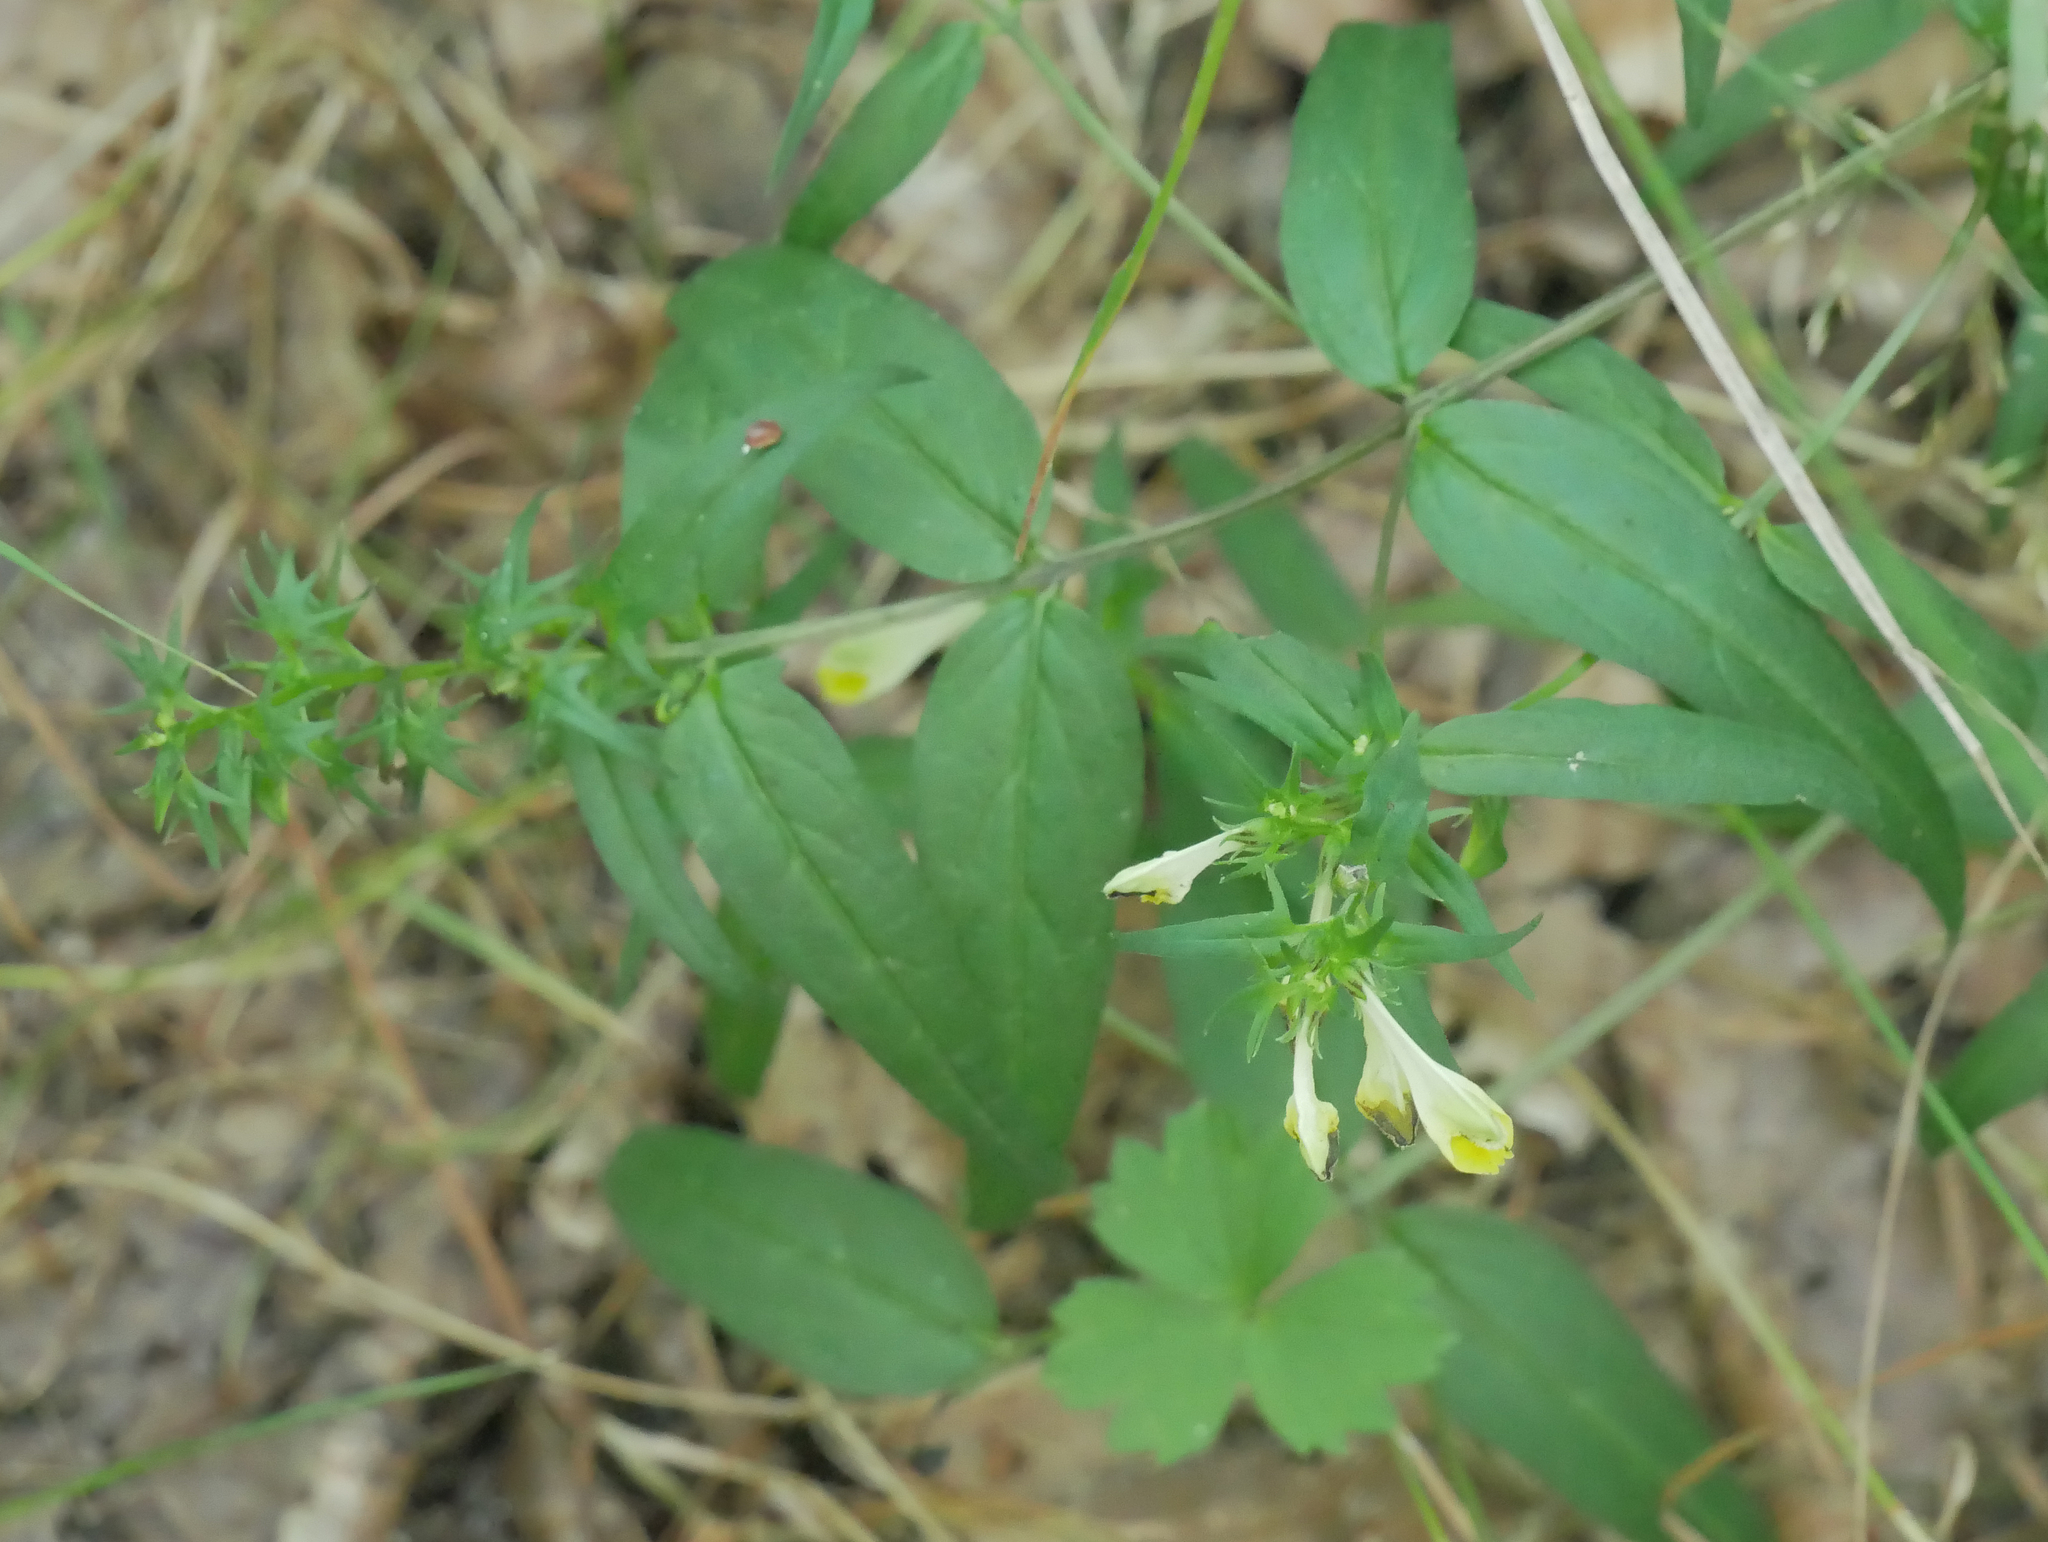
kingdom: Plantae
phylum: Tracheophyta
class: Magnoliopsida
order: Lamiales
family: Orobanchaceae
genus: Melampyrum
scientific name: Melampyrum pratense
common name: Common cow-wheat
